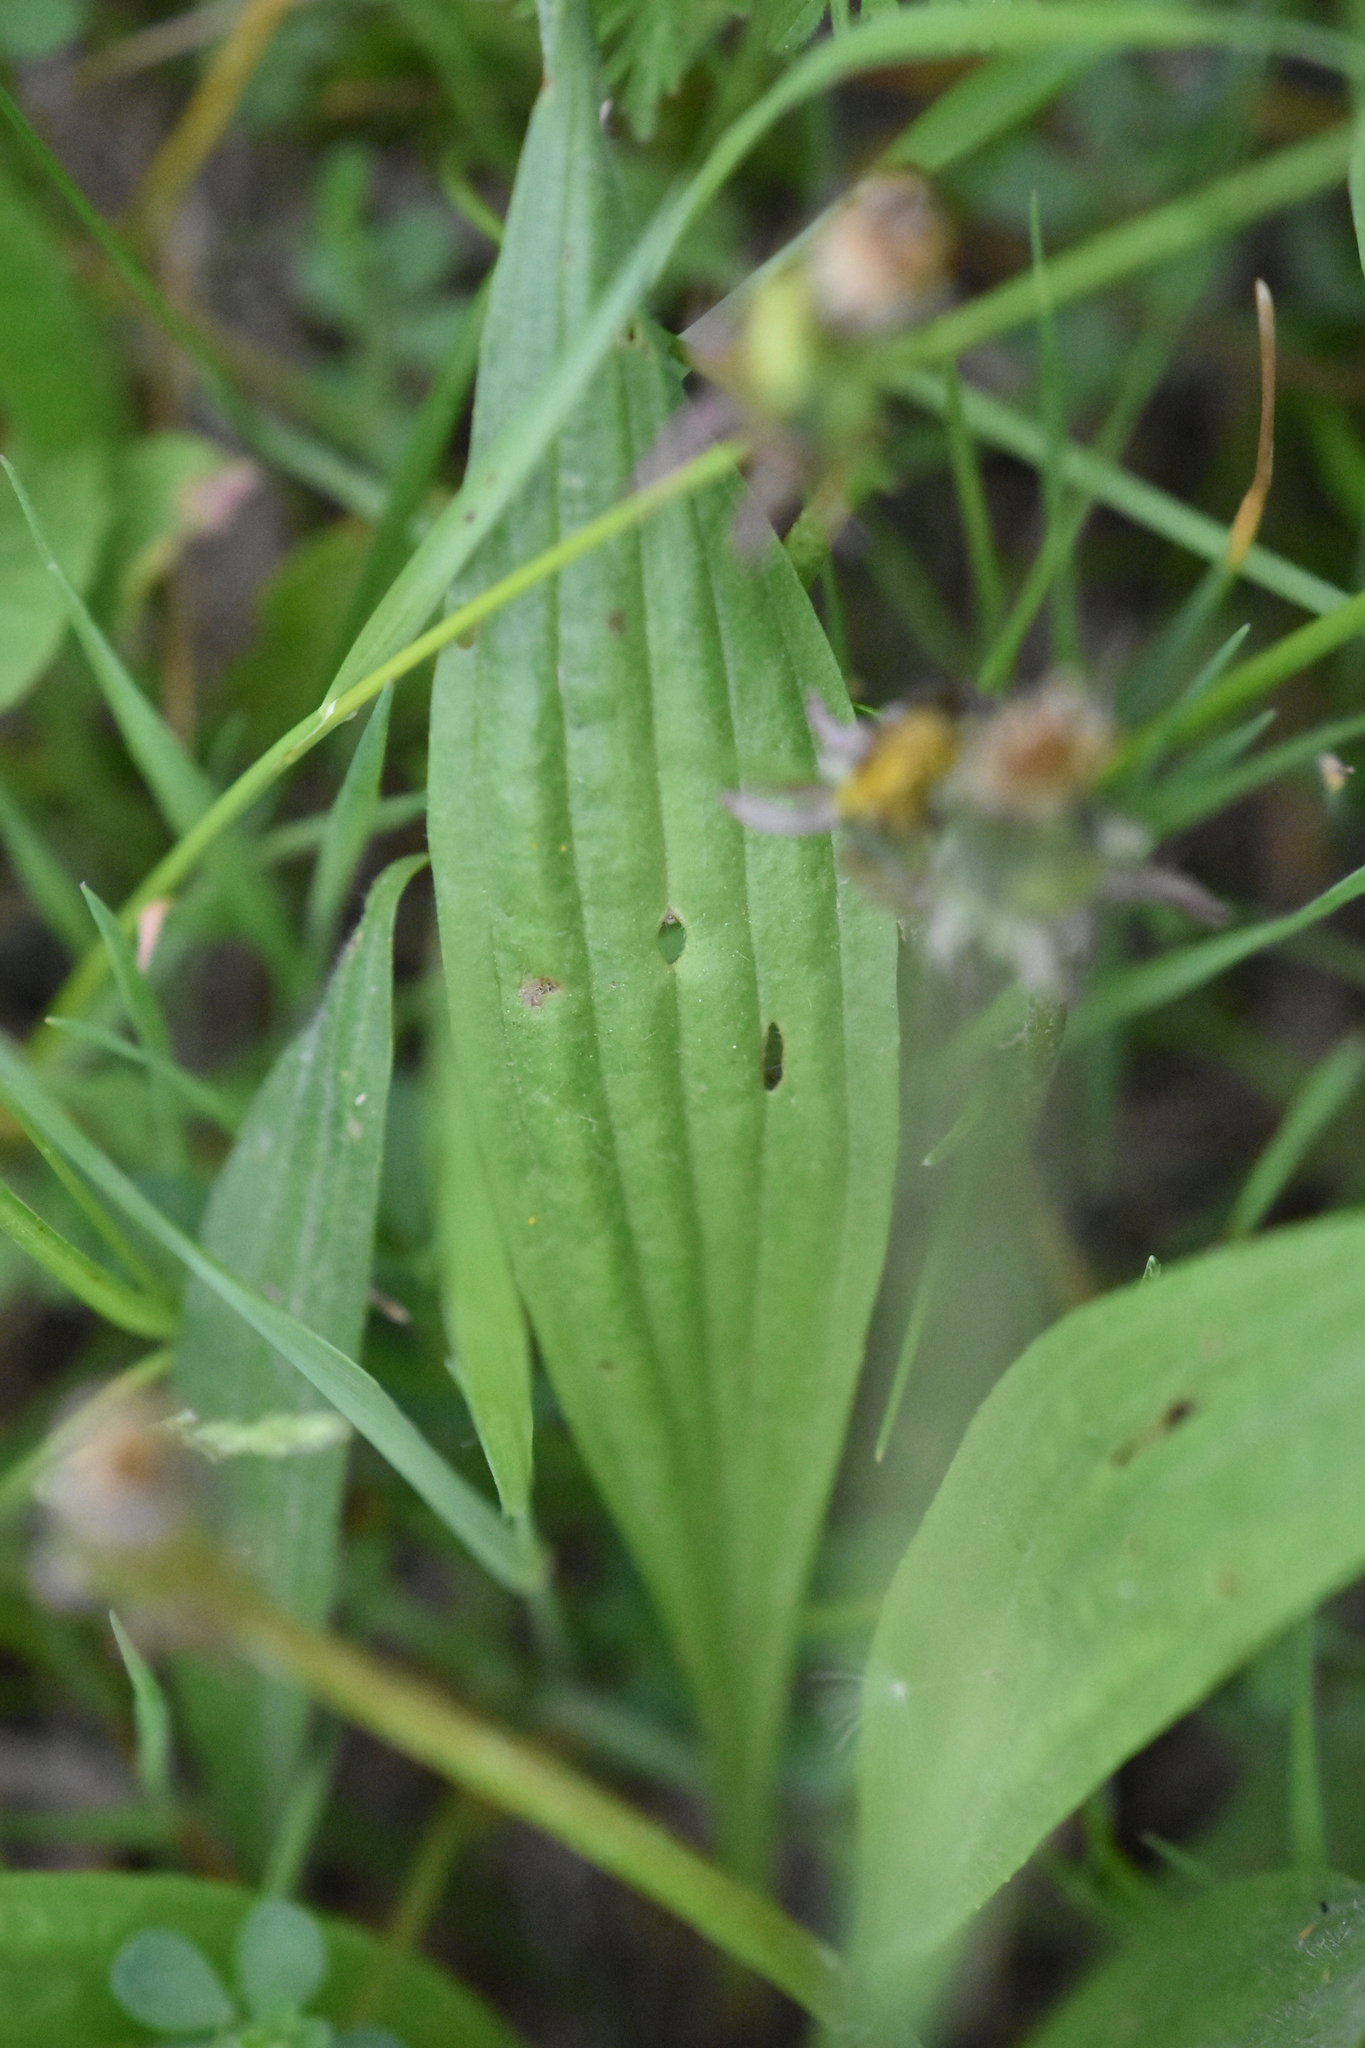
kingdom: Plantae
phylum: Tracheophyta
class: Magnoliopsida
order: Lamiales
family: Plantaginaceae
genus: Plantago
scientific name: Plantago lanceolata
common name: Ribwort plantain
